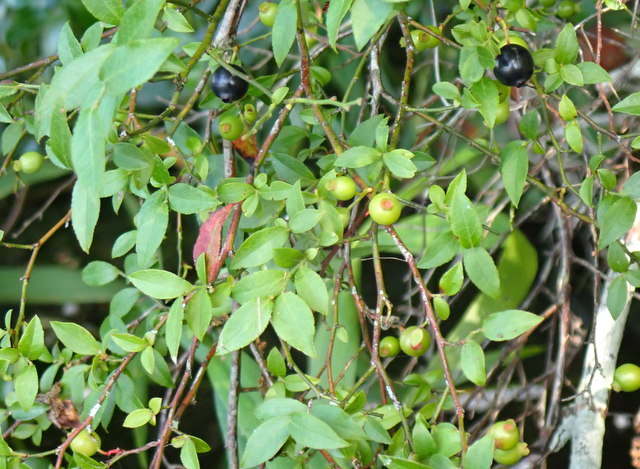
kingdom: Plantae
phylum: Tracheophyta
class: Magnoliopsida
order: Ericales
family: Ericaceae
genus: Vaccinium
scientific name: Vaccinium corymbosum
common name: Blueberry
